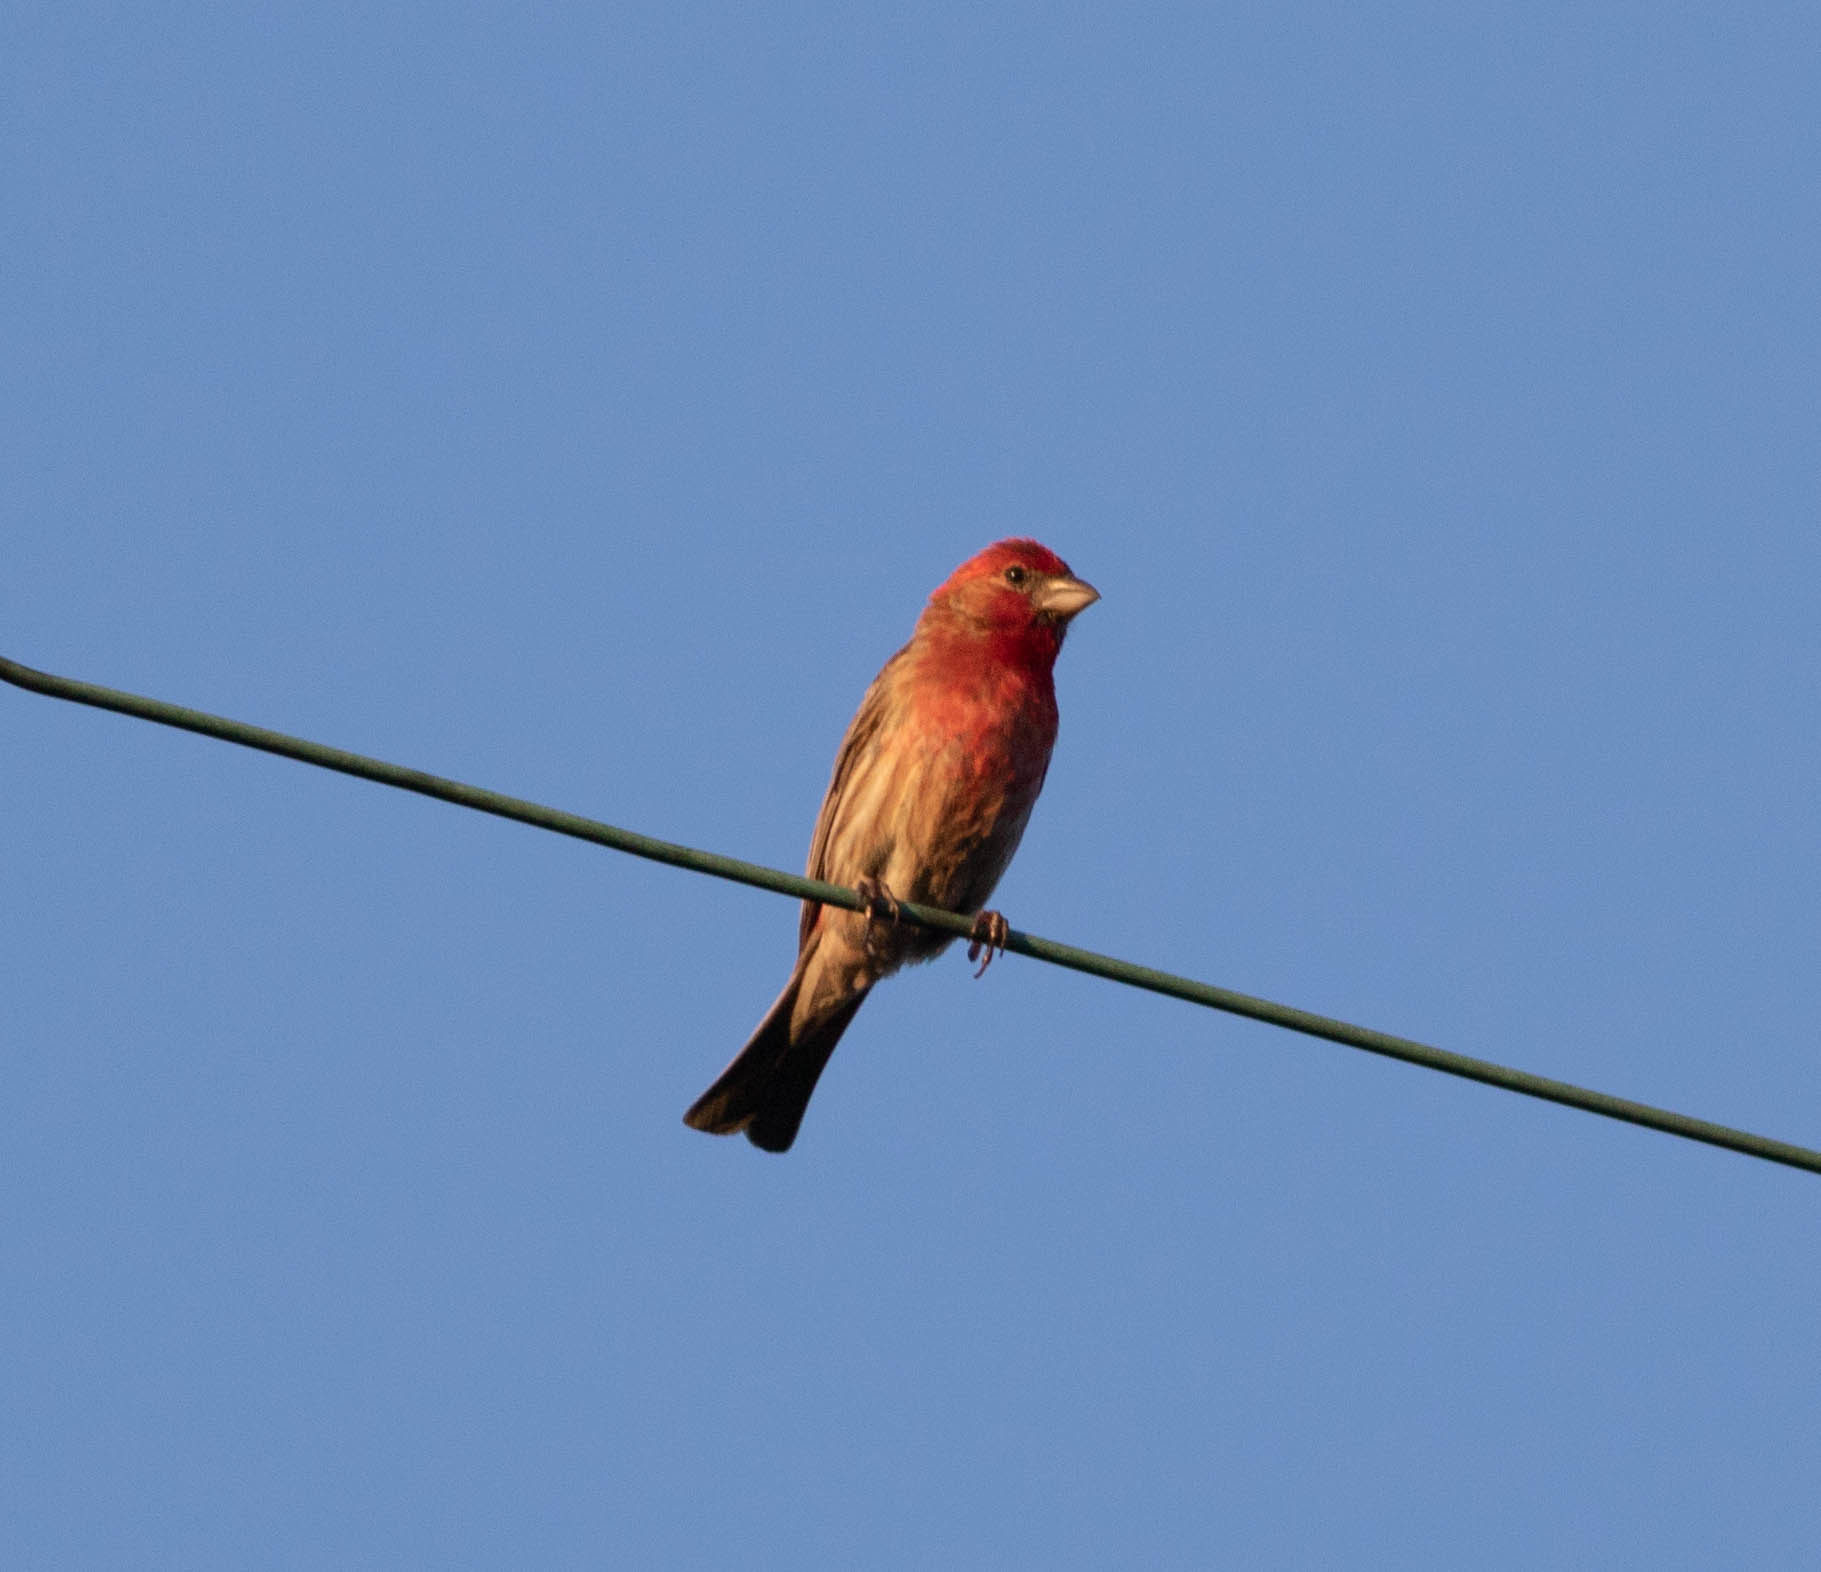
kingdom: Animalia
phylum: Chordata
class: Aves
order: Passeriformes
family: Fringillidae
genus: Haemorhous
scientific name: Haemorhous mexicanus
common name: House finch
